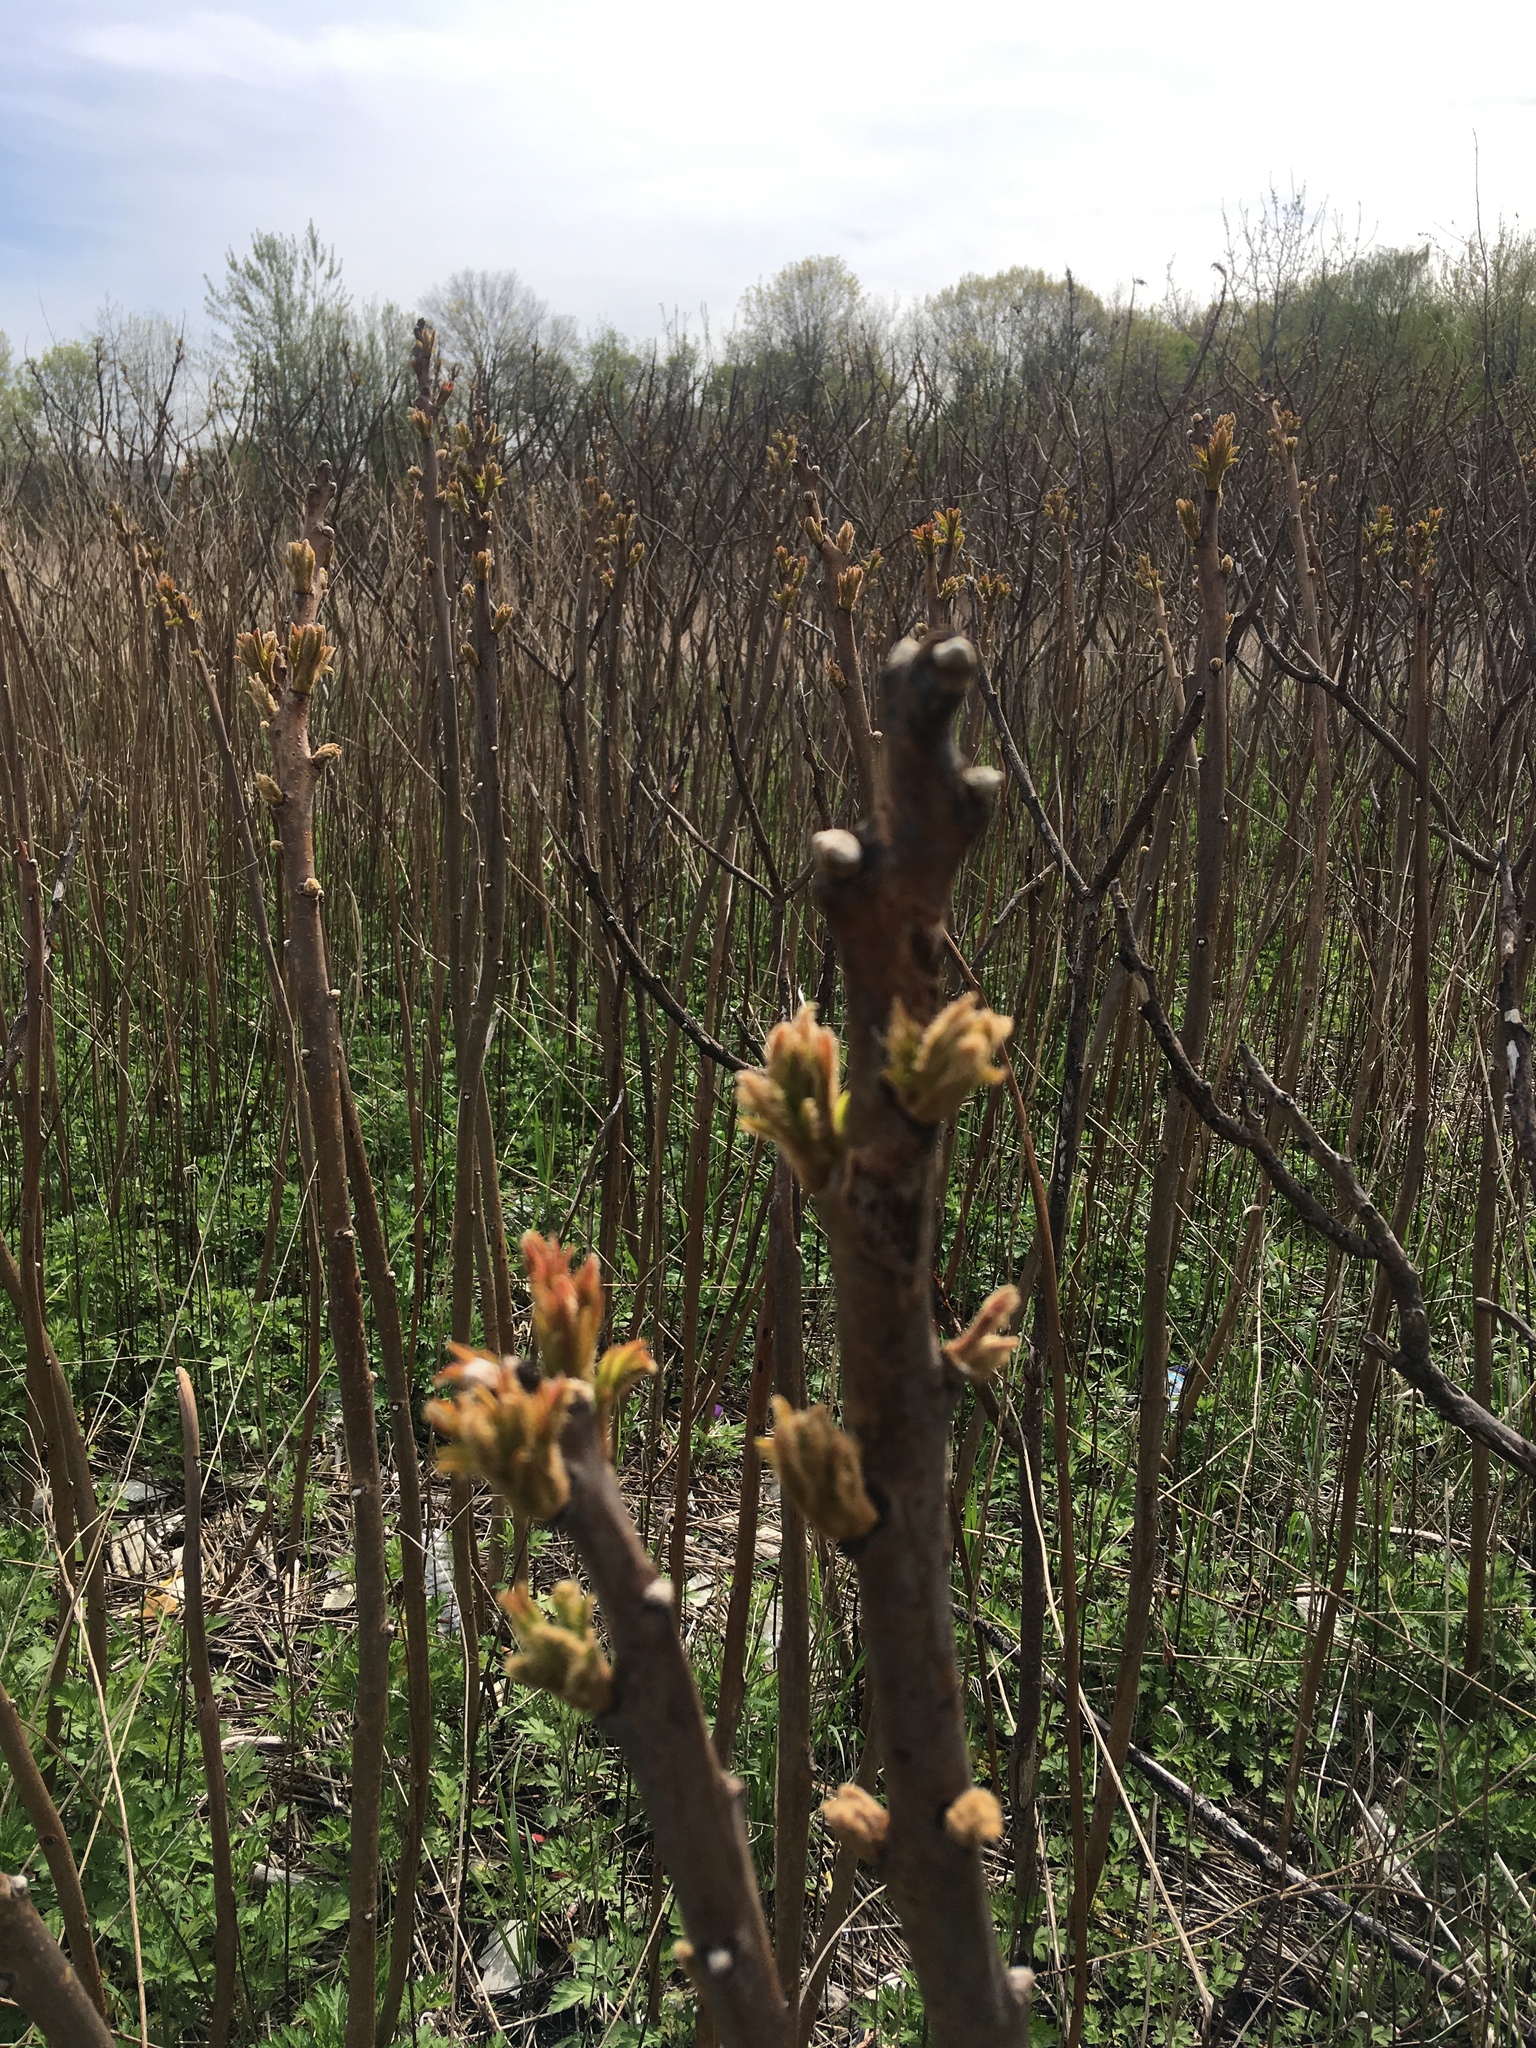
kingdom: Plantae
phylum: Tracheophyta
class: Magnoliopsida
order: Sapindales
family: Anacardiaceae
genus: Rhus
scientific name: Rhus copallina
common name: Shining sumac
